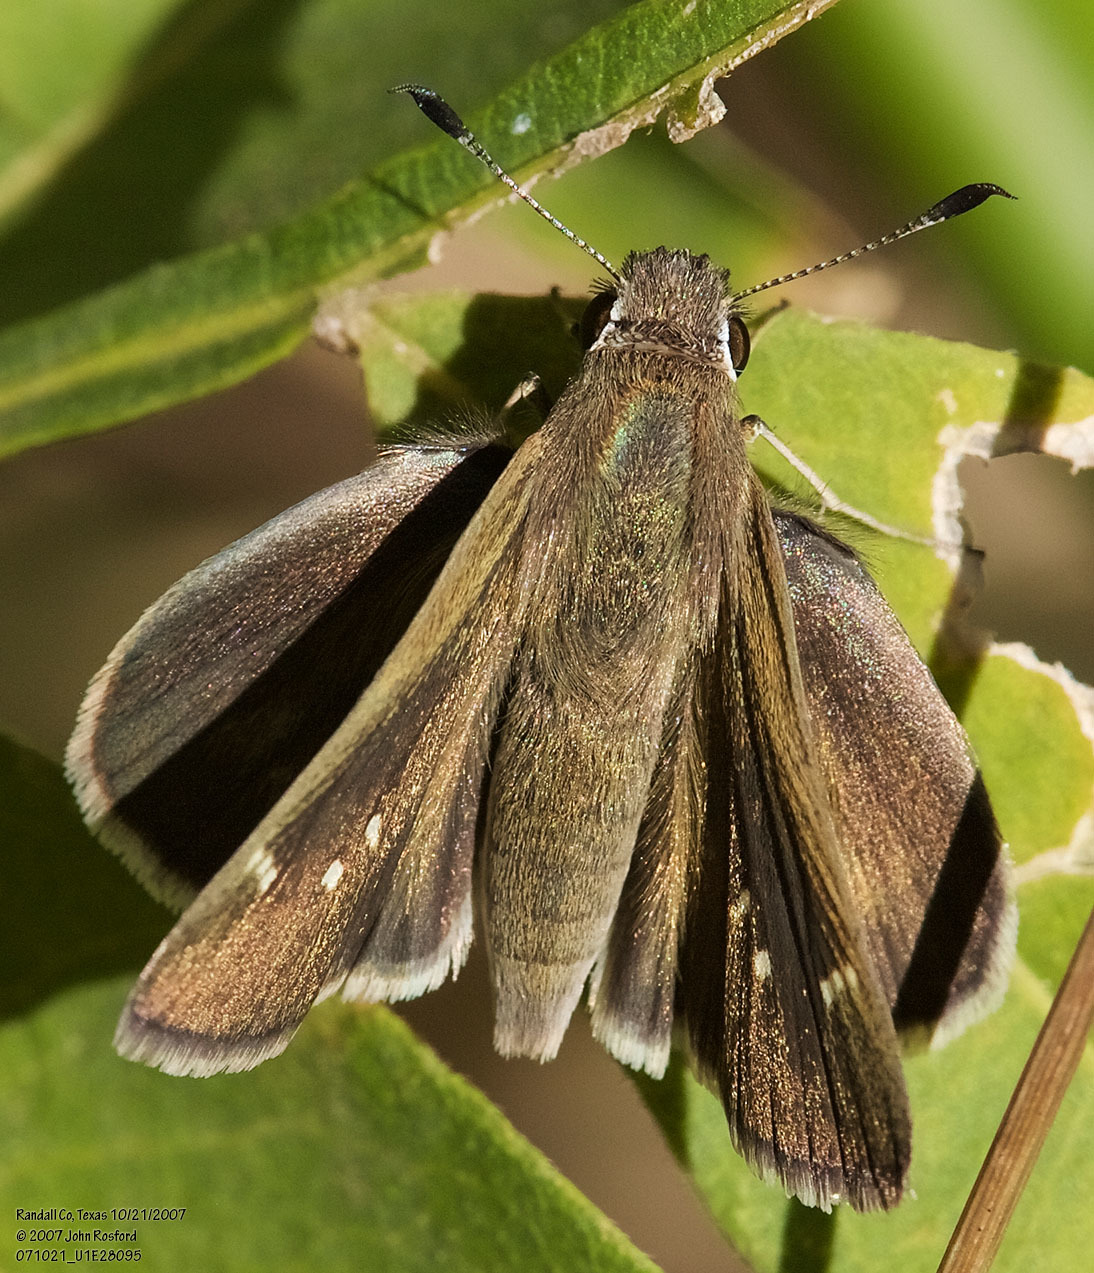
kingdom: Animalia
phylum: Arthropoda
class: Insecta
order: Lepidoptera
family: Hesperiidae
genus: Lerodea
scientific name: Lerodea eufala
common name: Eufala skipper
